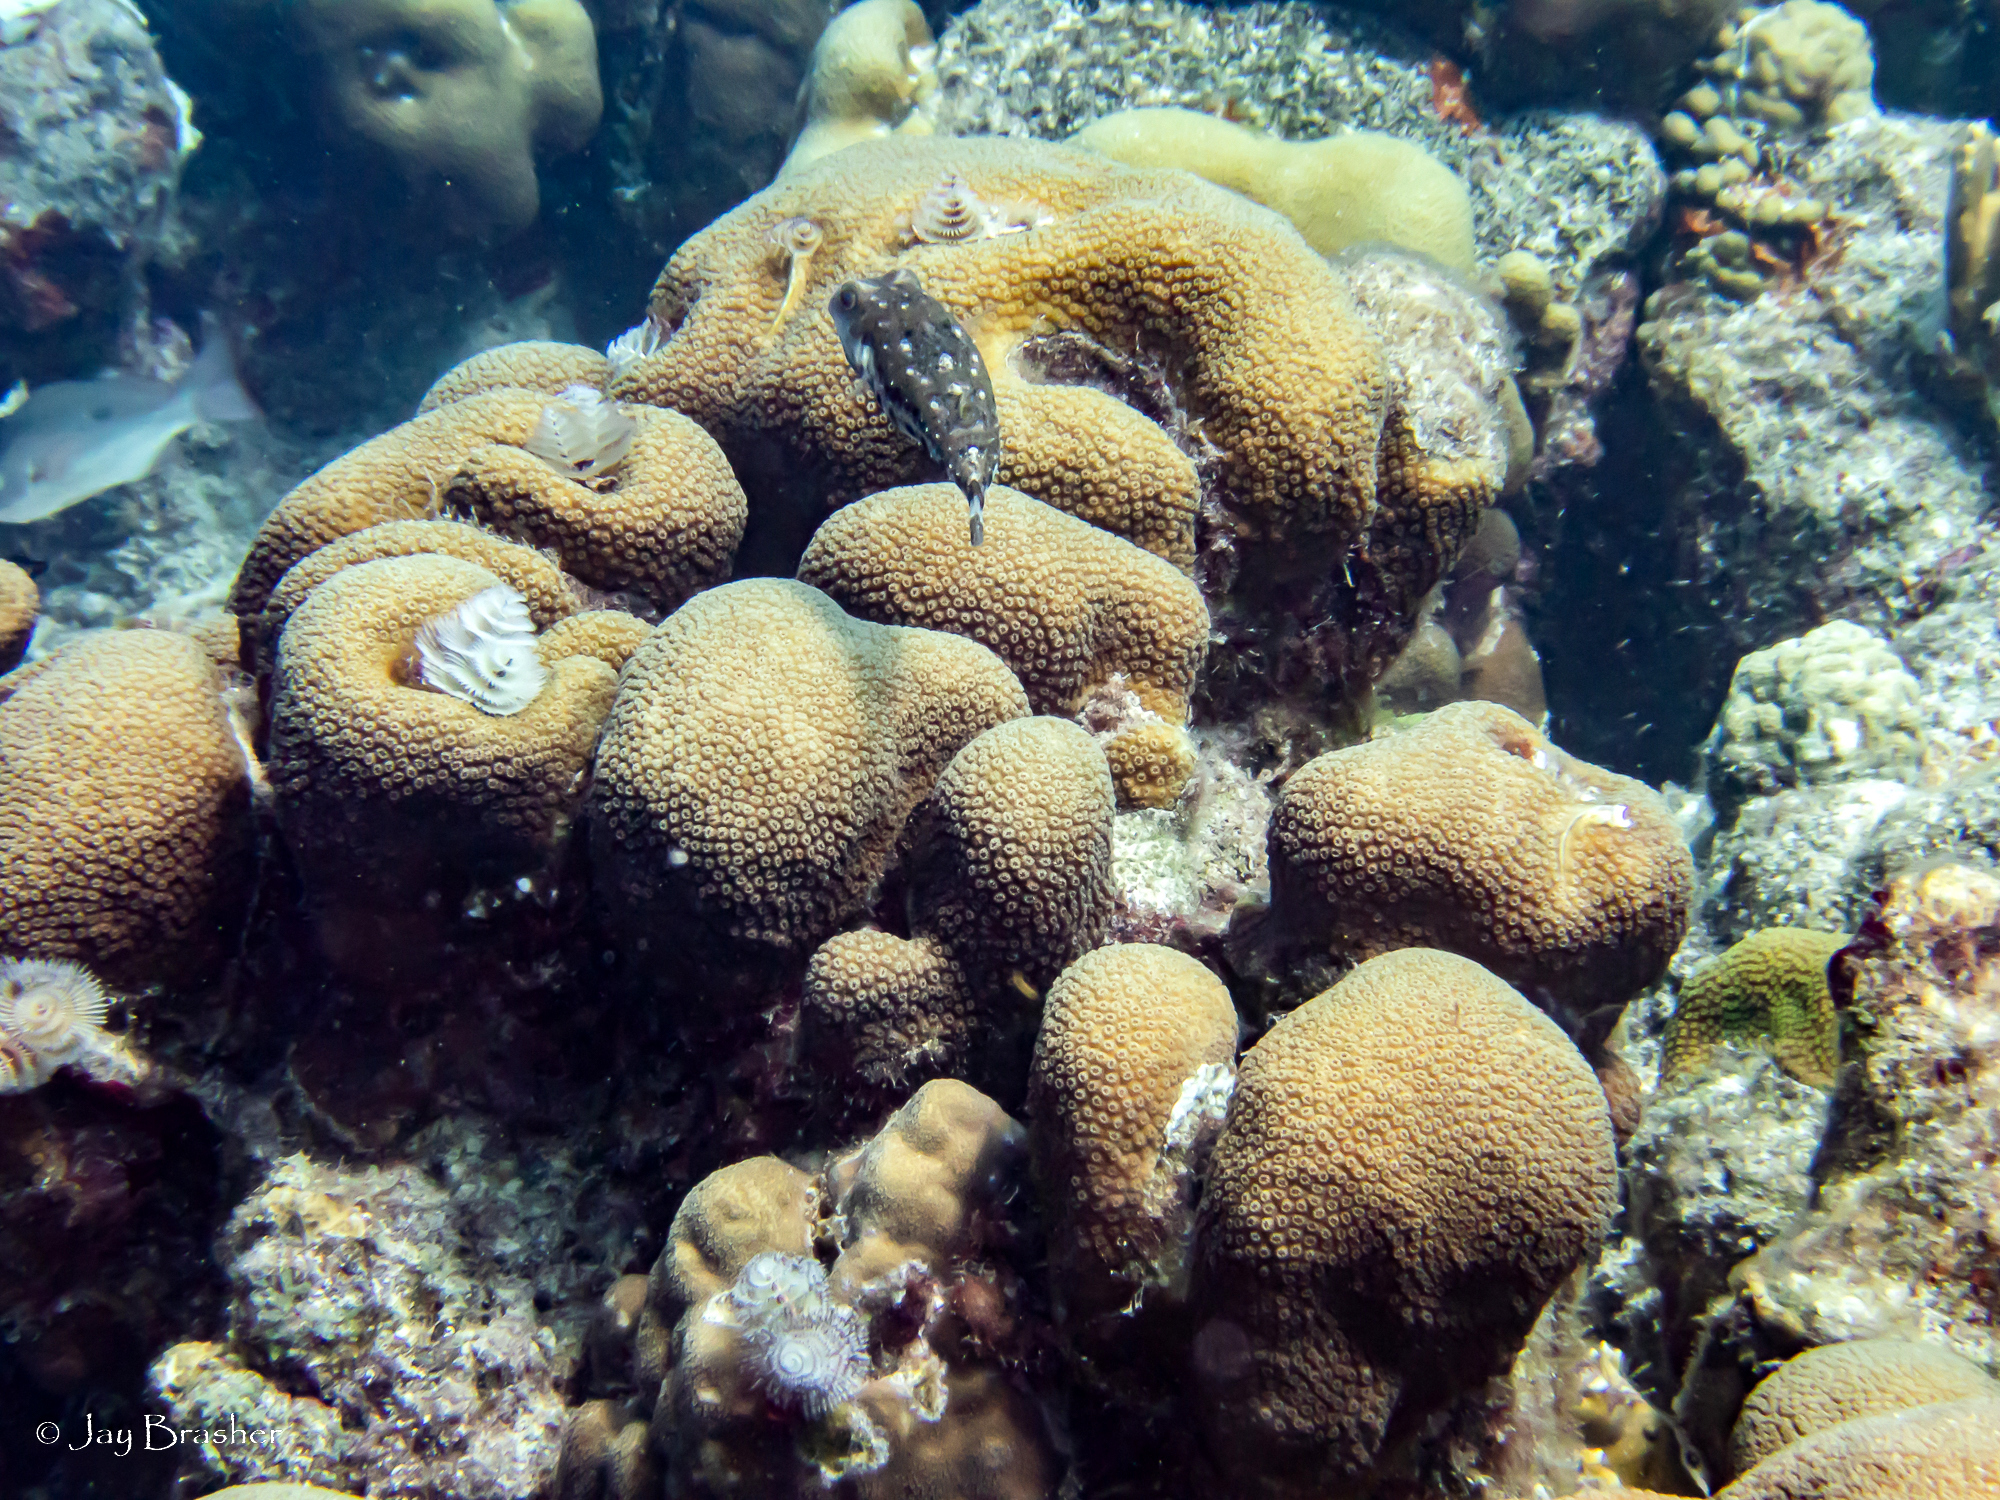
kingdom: Animalia
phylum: Annelida
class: Polychaeta
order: Sabellida
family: Serpulidae
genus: Spirobranchus
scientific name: Spirobranchus giganteus
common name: Christmas tree worm
